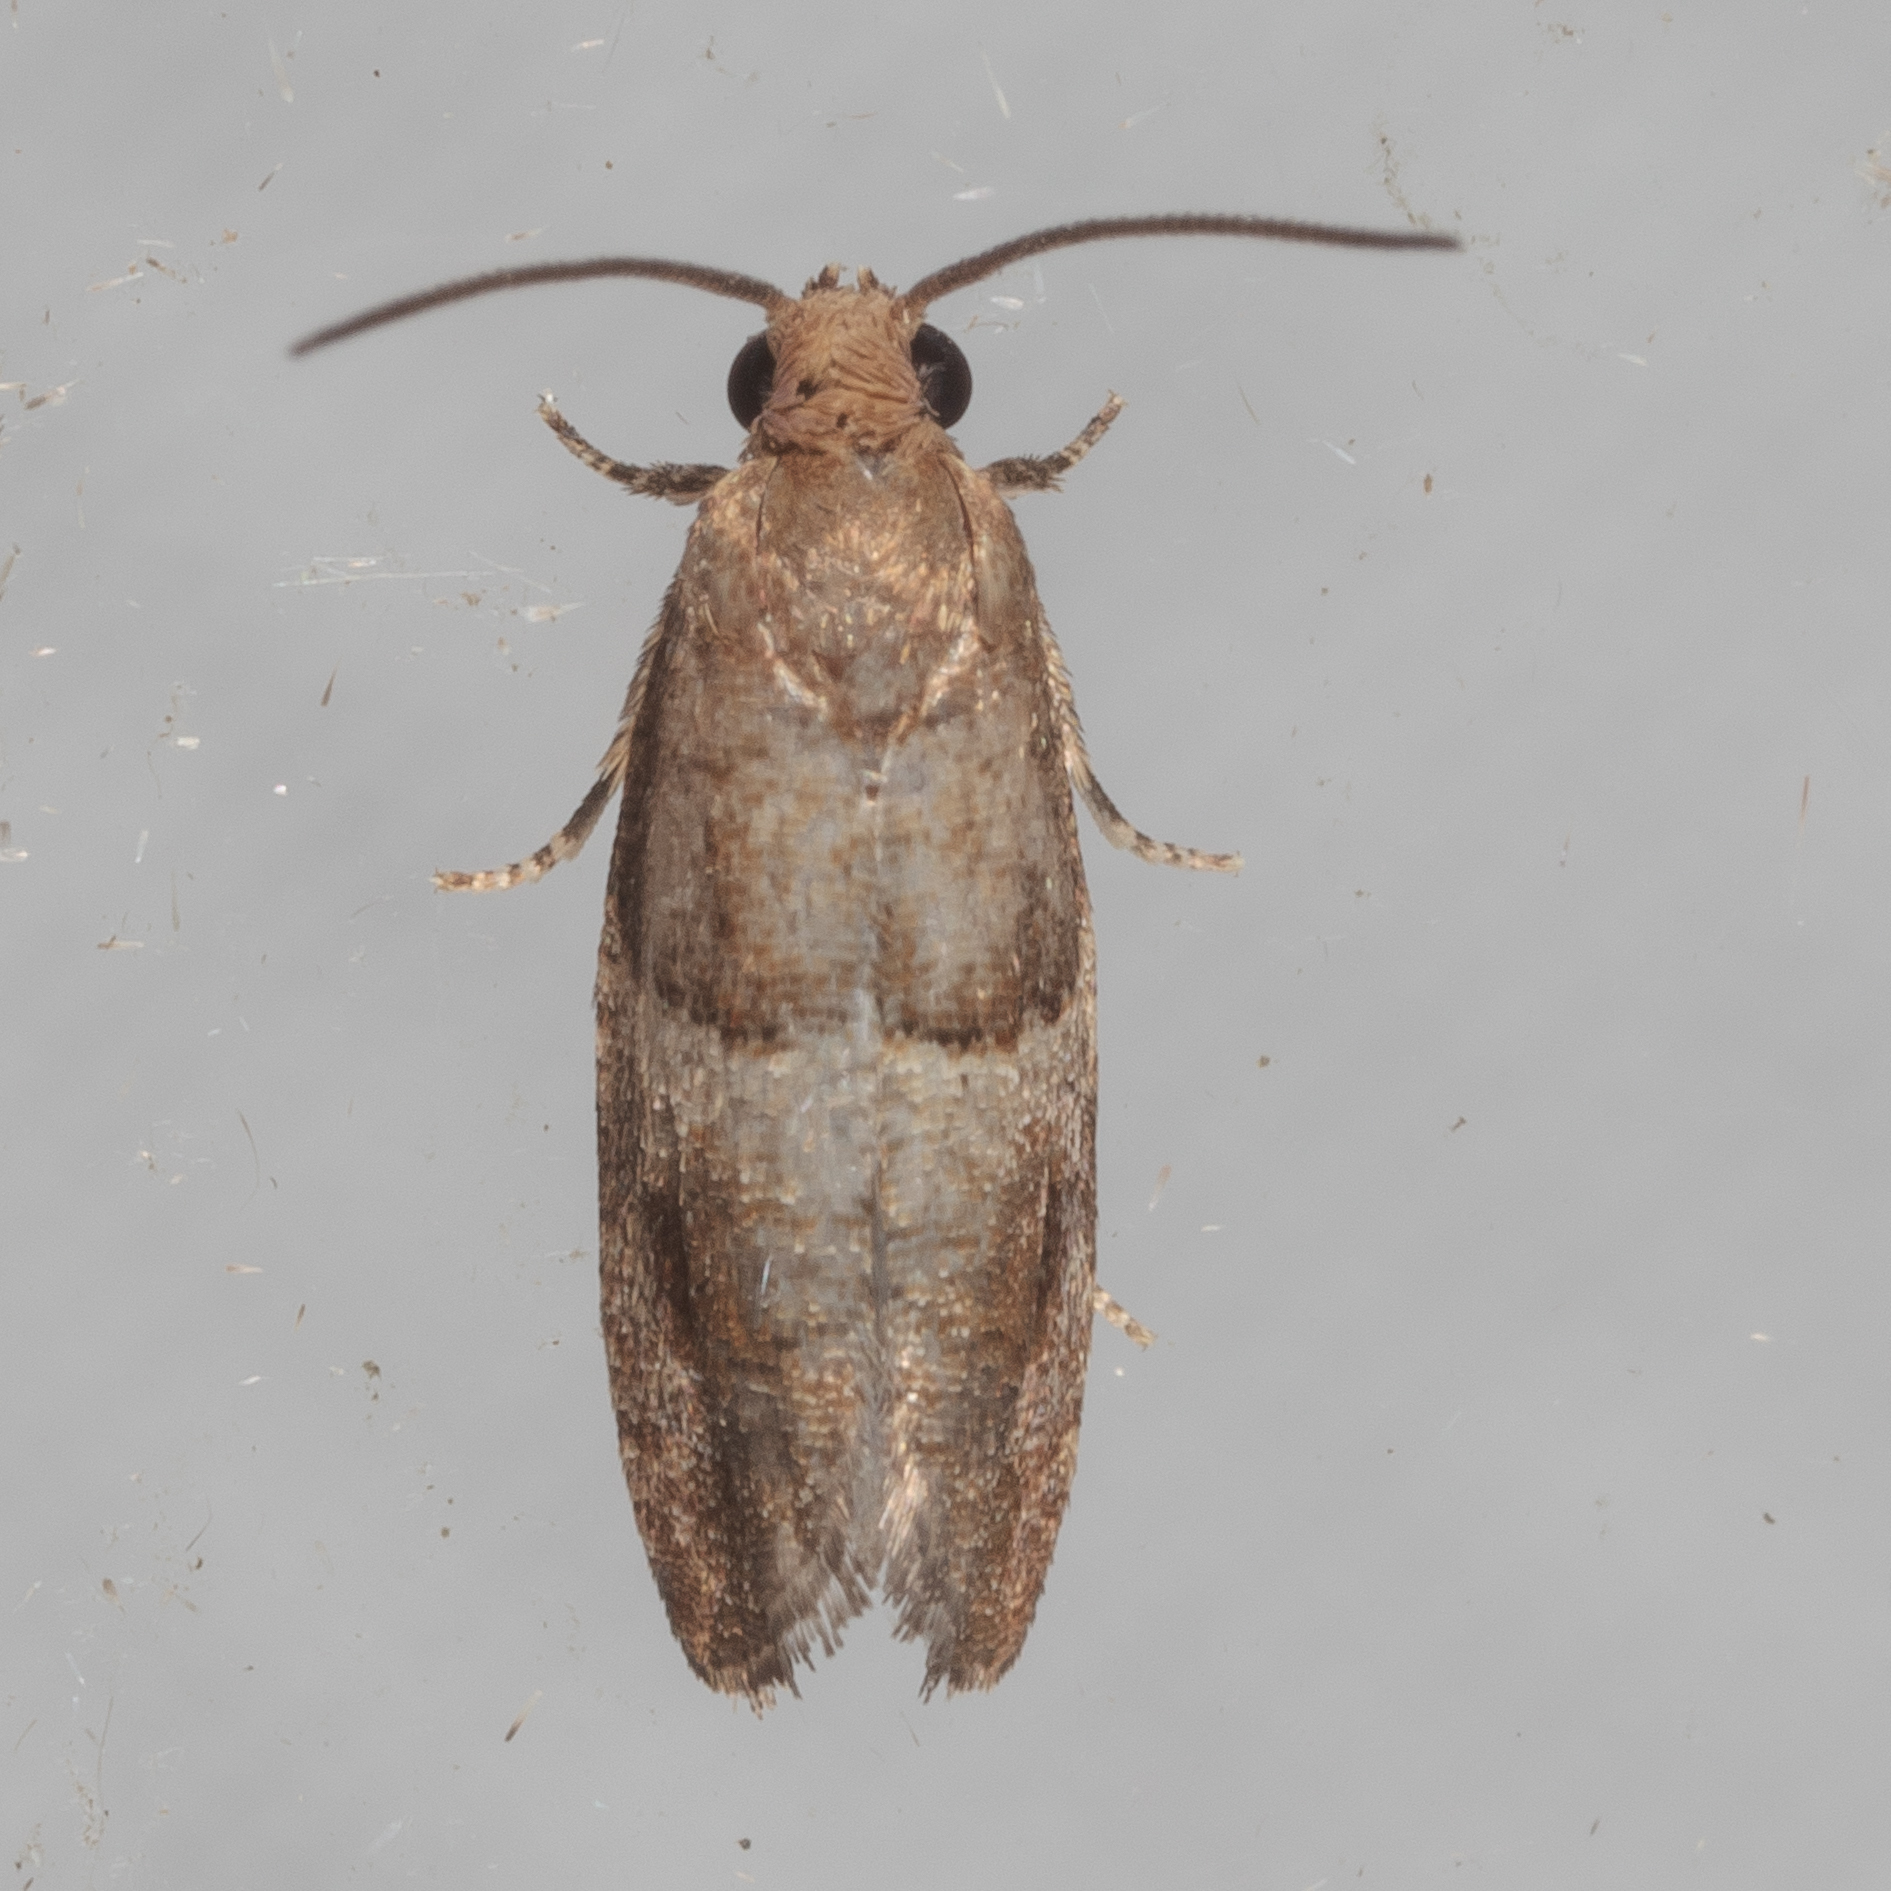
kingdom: Animalia
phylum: Arthropoda
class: Insecta
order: Lepidoptera
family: Tortricidae
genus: Larisa
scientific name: Larisa subsolana
